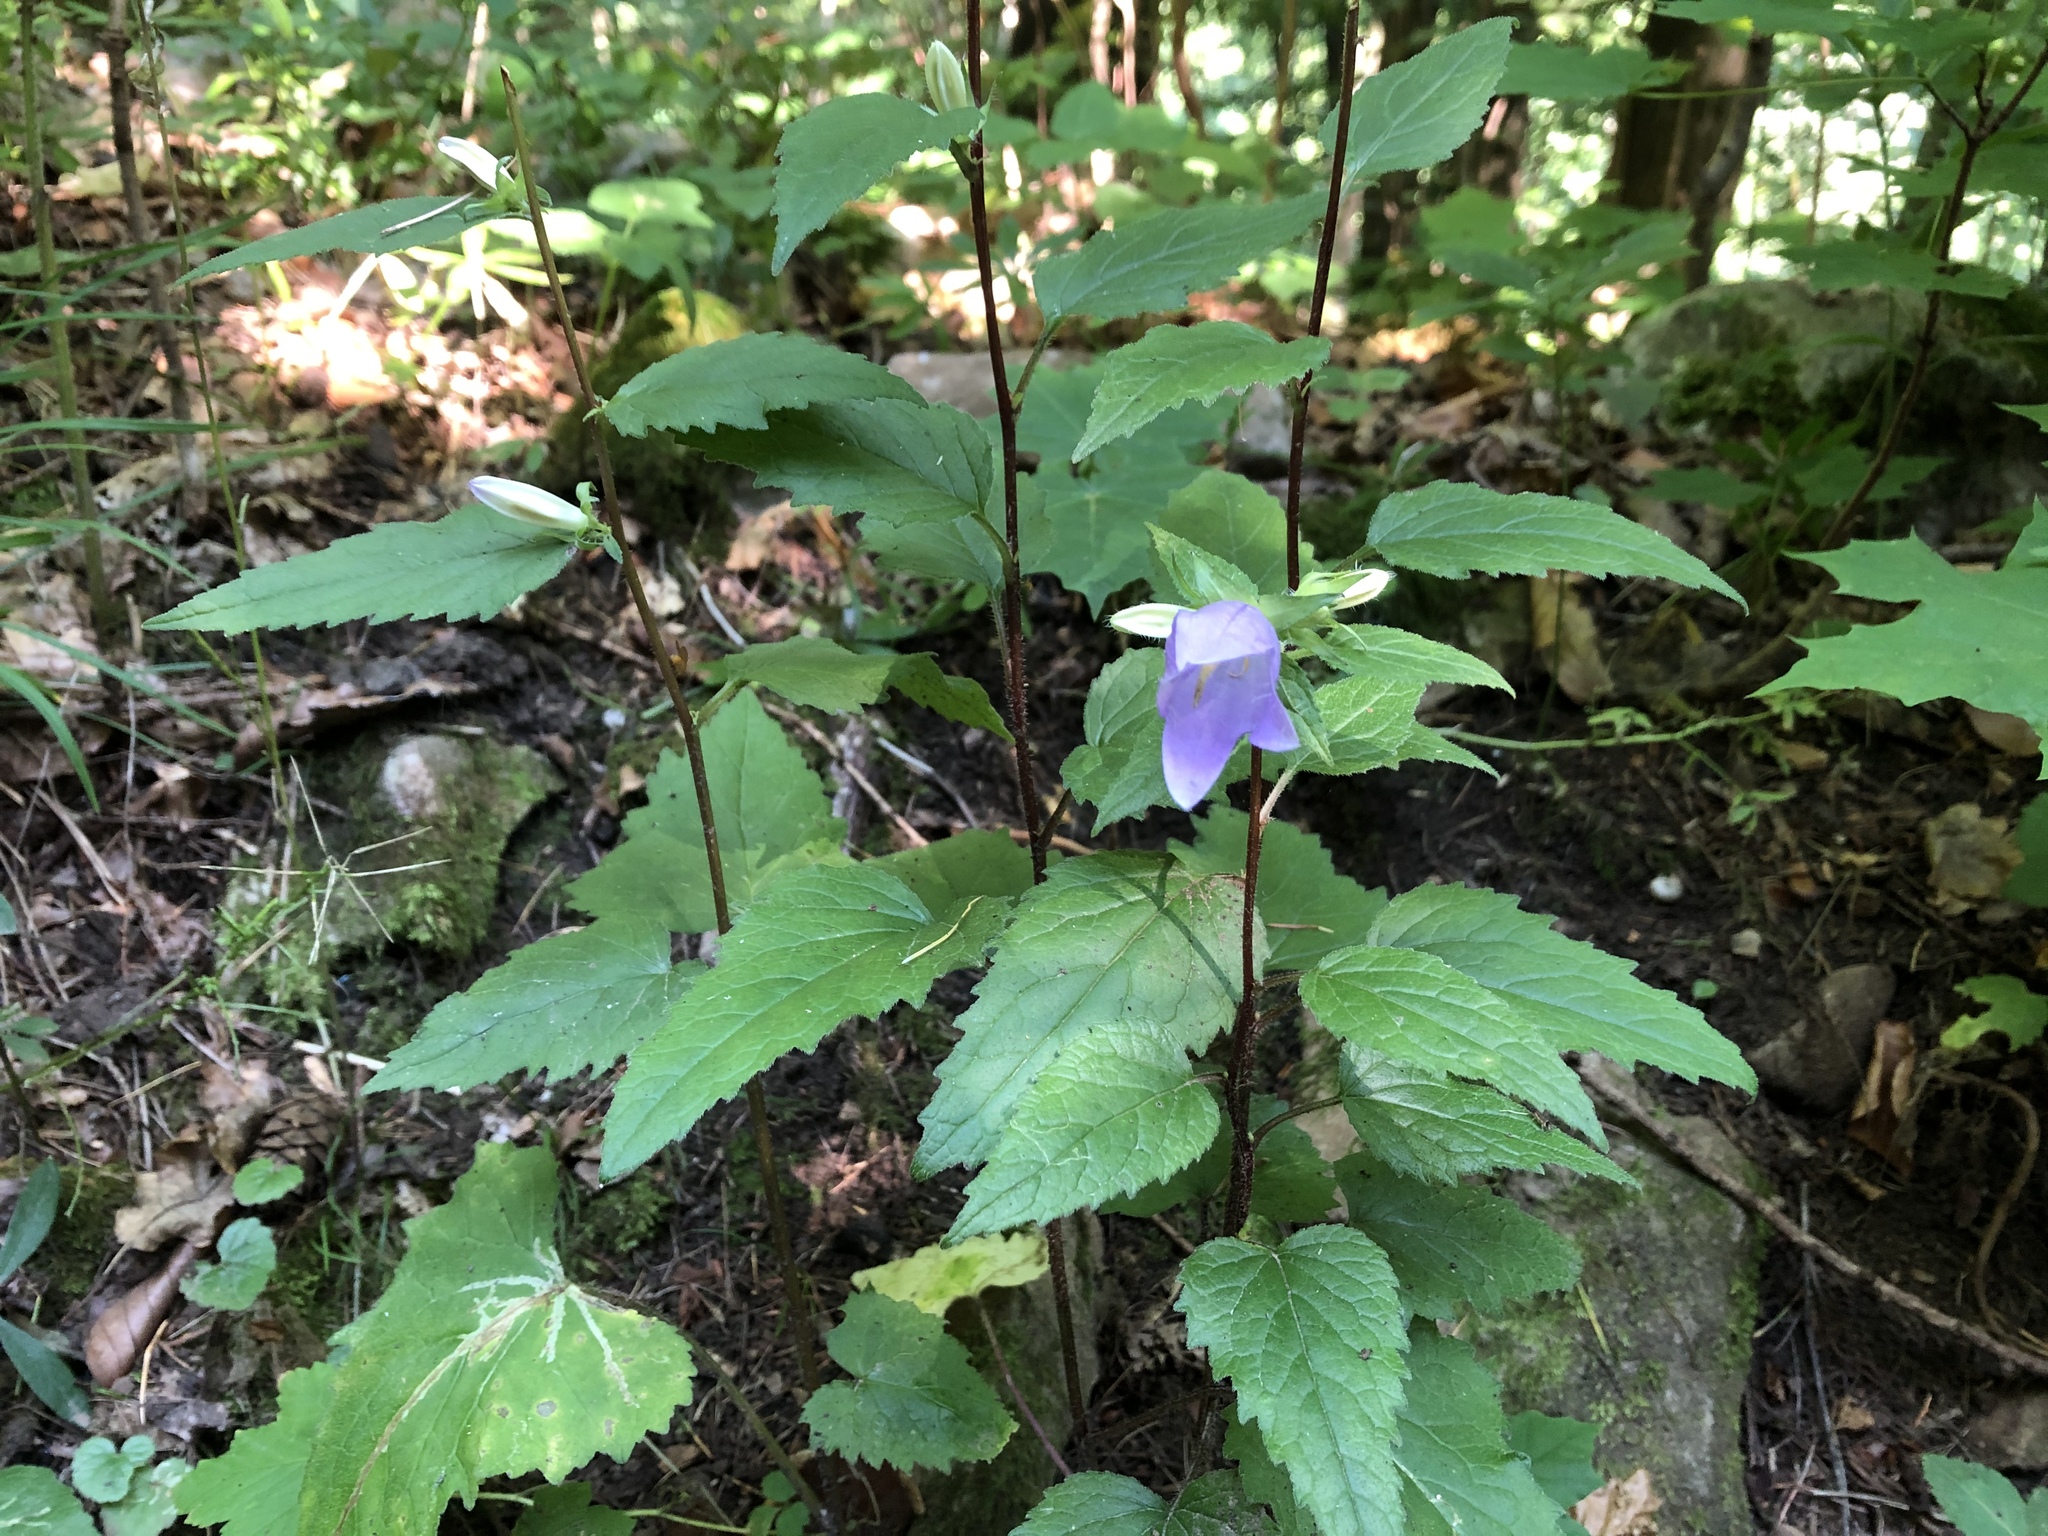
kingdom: Plantae
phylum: Tracheophyta
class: Magnoliopsida
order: Asterales
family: Campanulaceae
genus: Campanula
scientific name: Campanula trachelium
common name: Nettle-leaved bellflower
